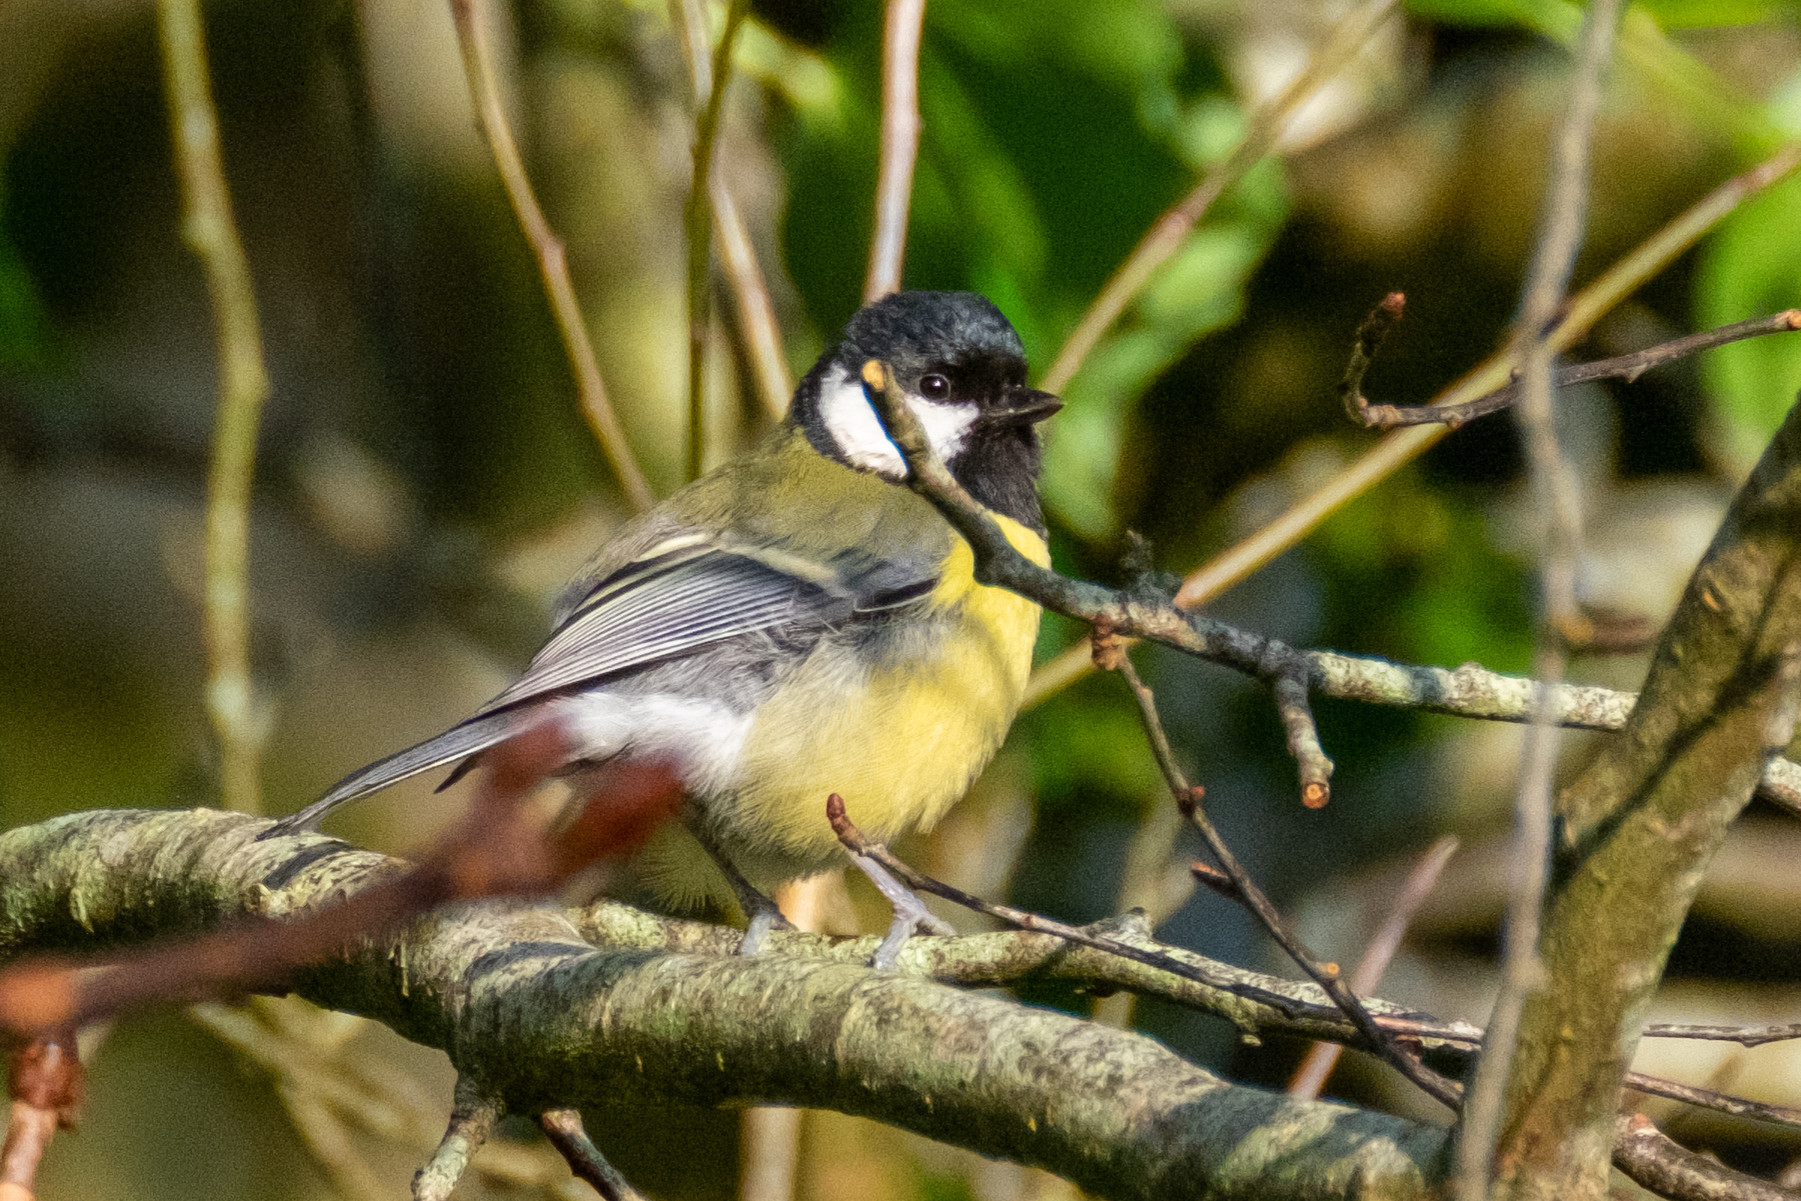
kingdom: Animalia
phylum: Chordata
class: Aves
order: Passeriformes
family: Paridae
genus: Parus
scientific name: Parus major
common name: Great tit
